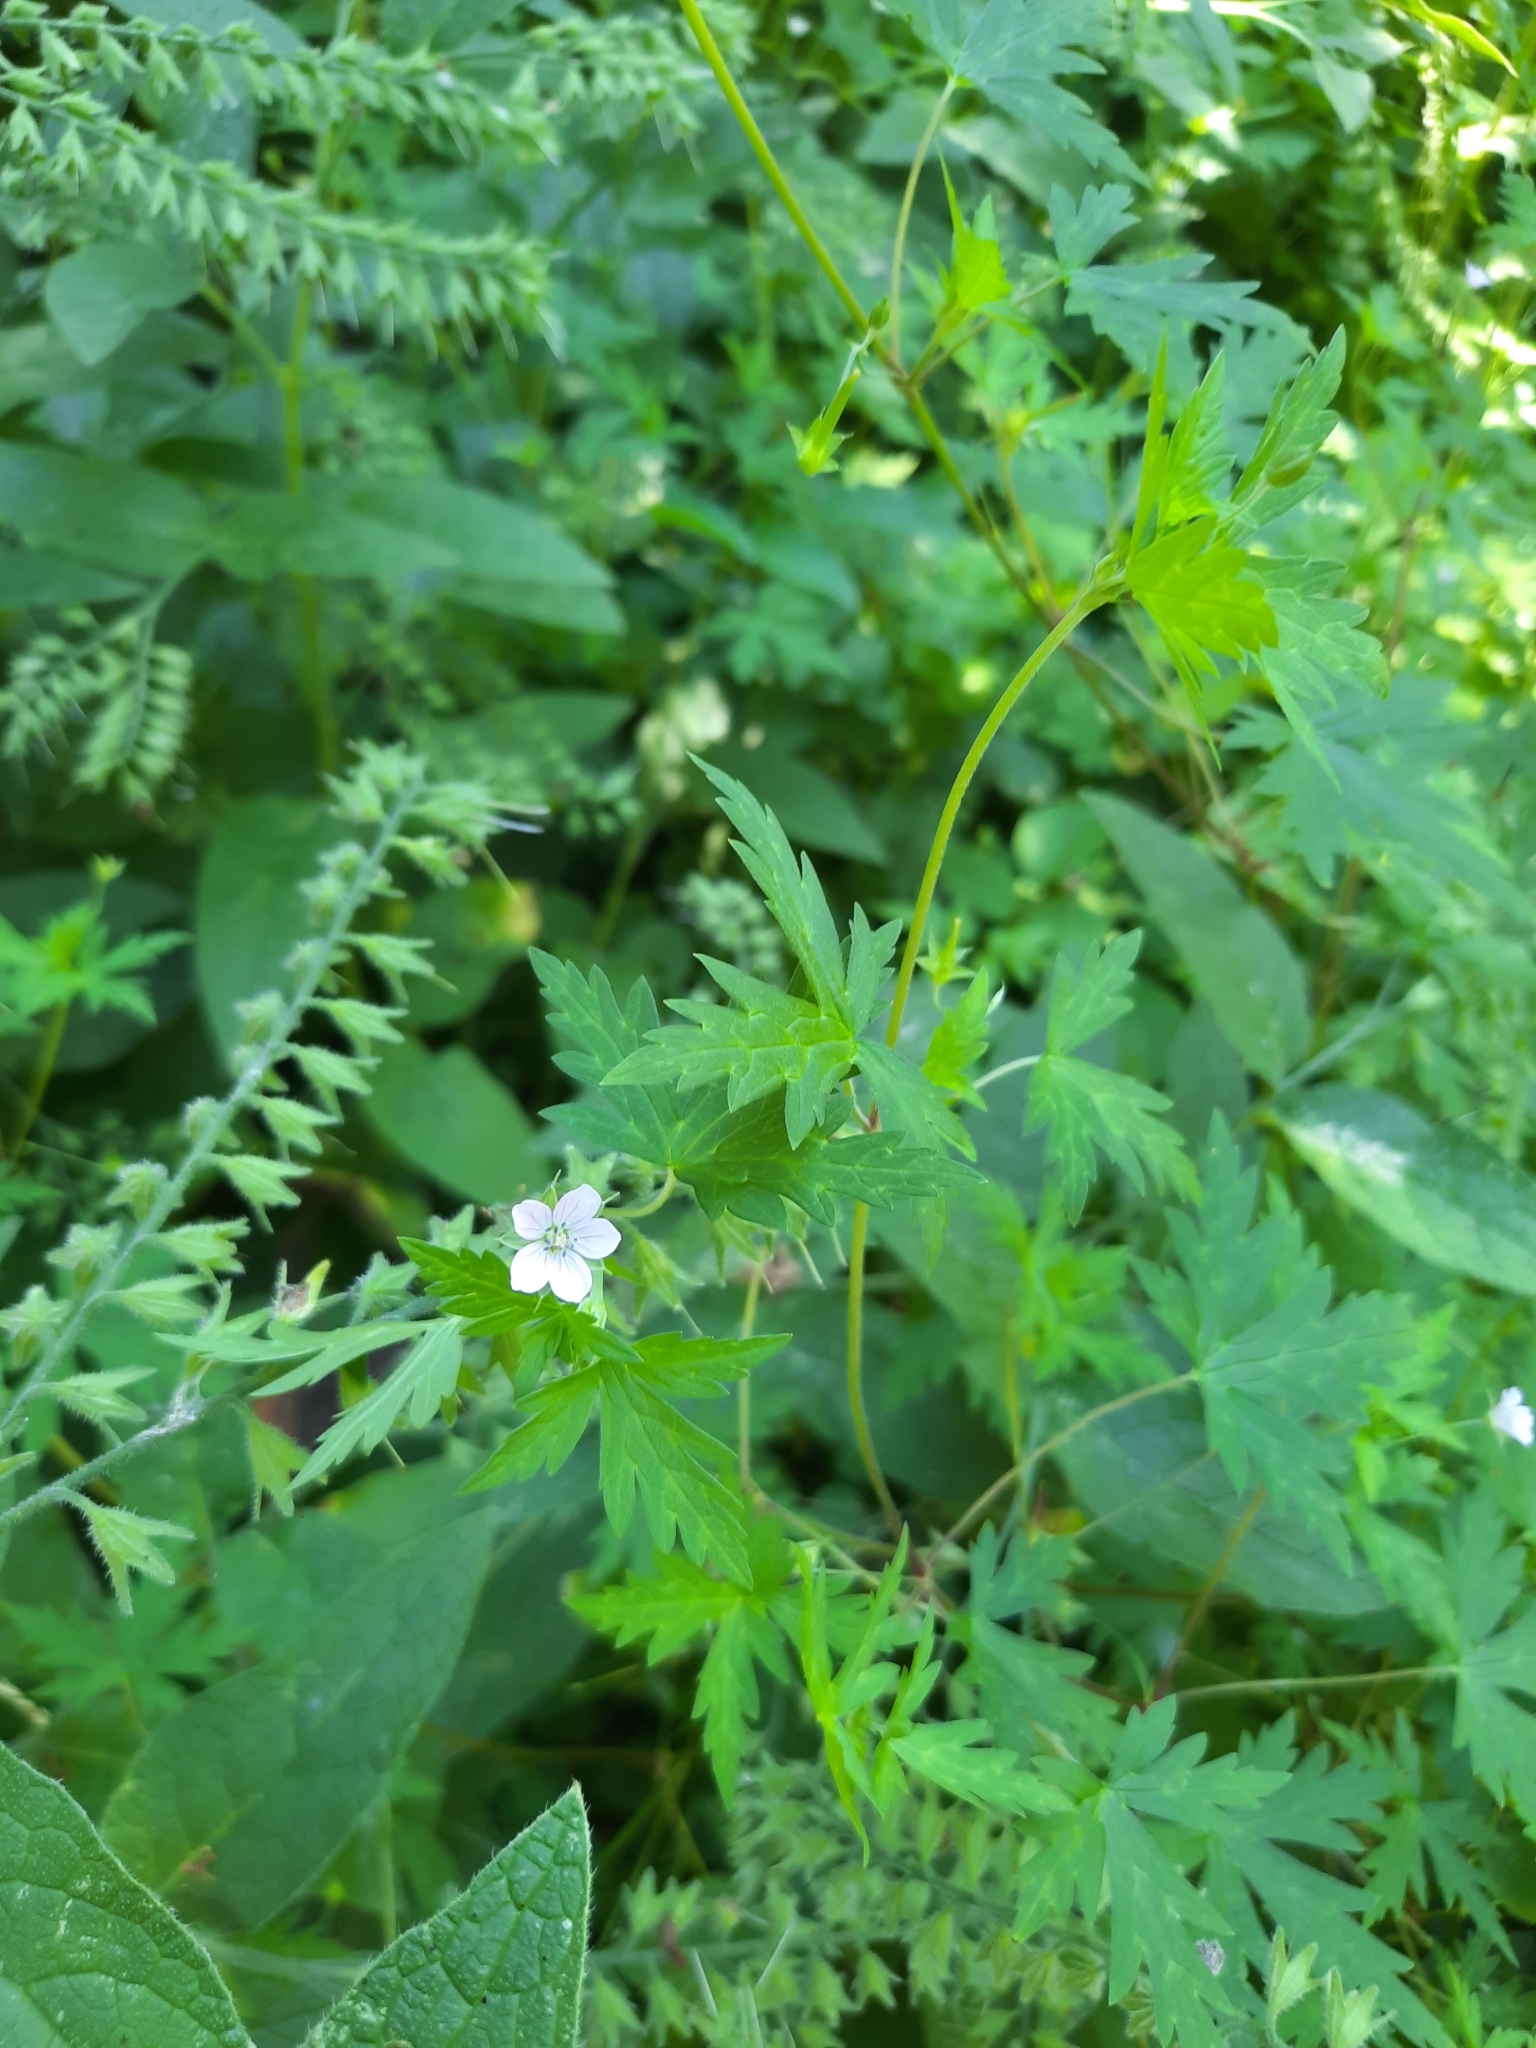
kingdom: Plantae
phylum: Tracheophyta
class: Magnoliopsida
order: Geraniales
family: Geraniaceae
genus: Geranium
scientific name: Geranium sibiricum
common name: Siberian crane's-bill
